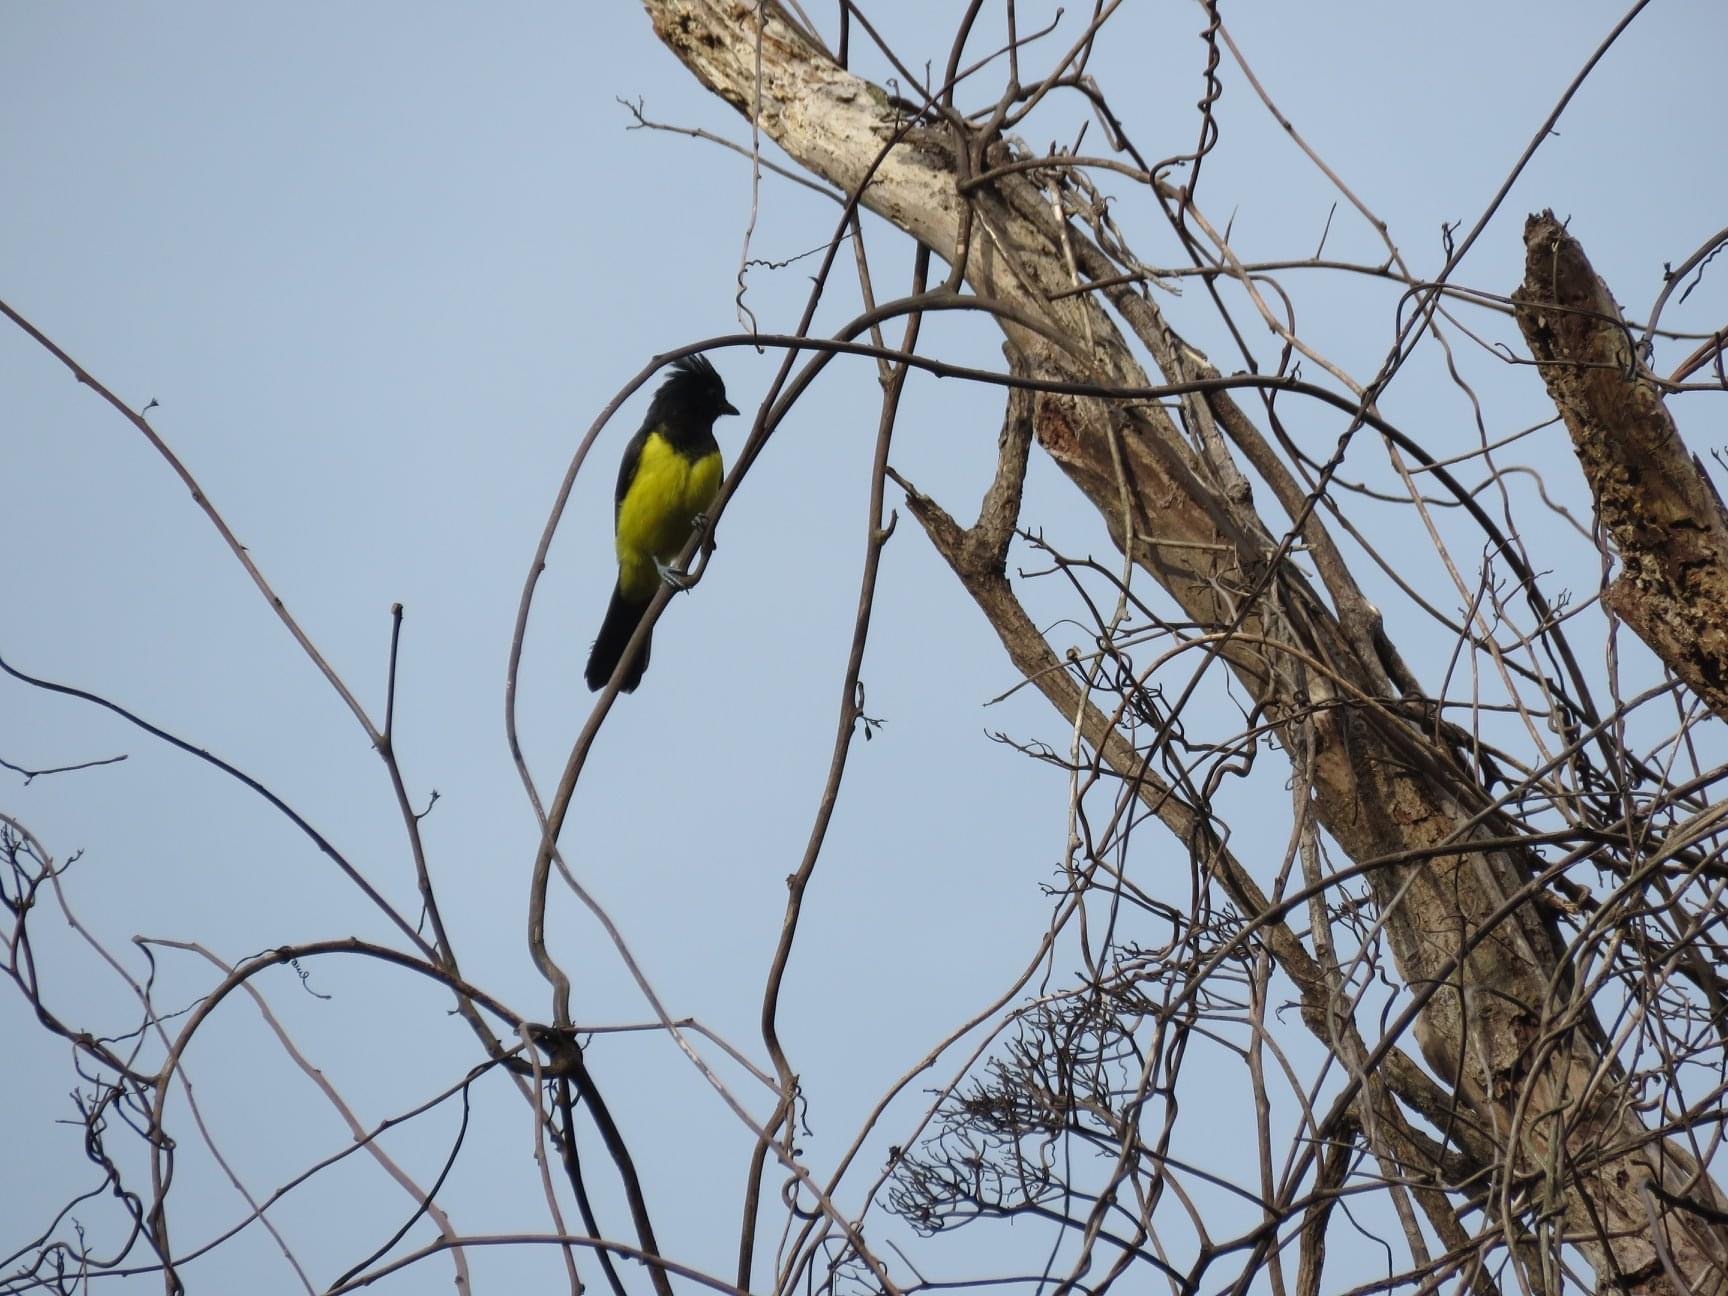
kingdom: Animalia
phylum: Chordata
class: Aves
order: Passeriformes
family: Paridae
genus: Melanochlora
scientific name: Melanochlora sultanea
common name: Sultan tit
